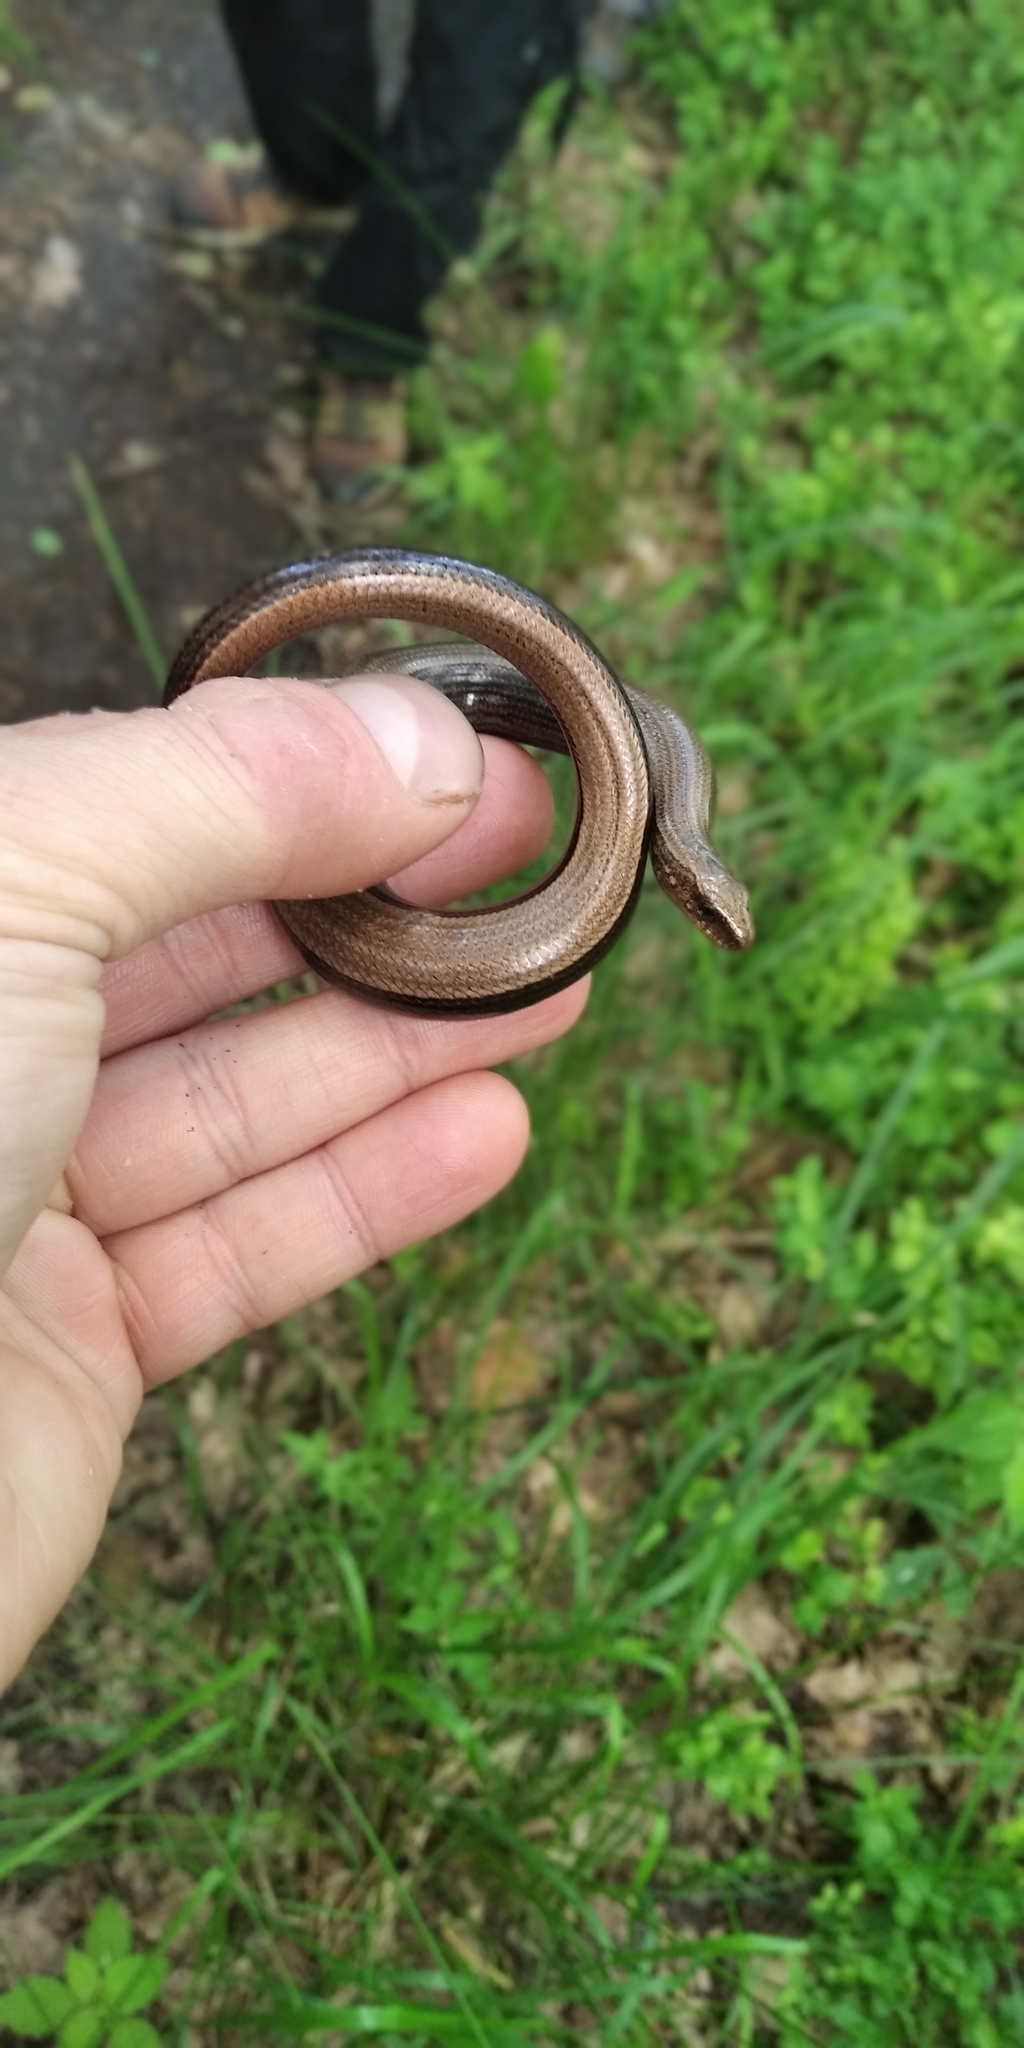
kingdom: Animalia
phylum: Chordata
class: Squamata
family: Anguidae
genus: Anguis
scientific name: Anguis colchica
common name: Slow worm
